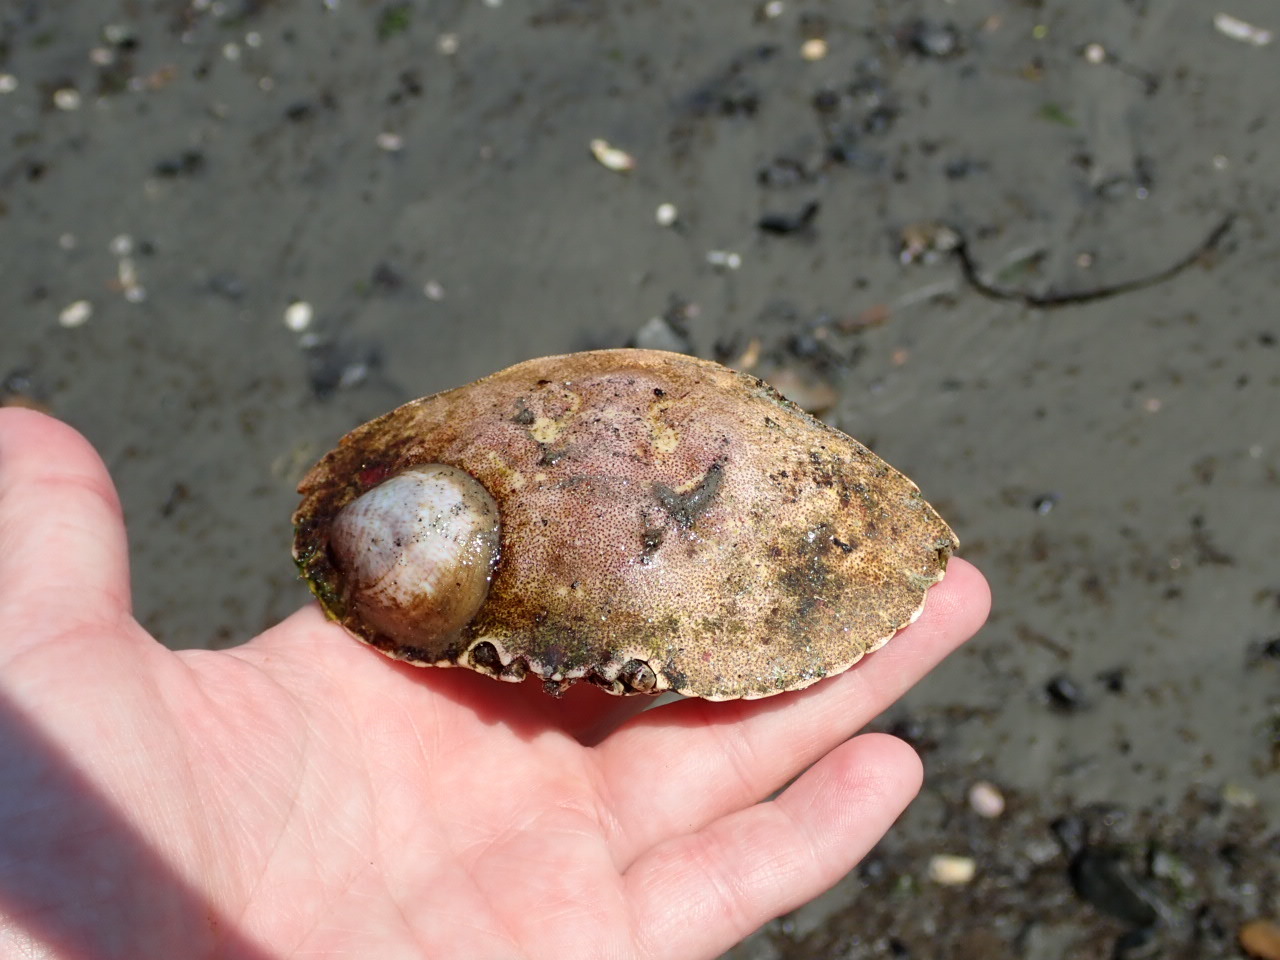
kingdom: Animalia
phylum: Arthropoda
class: Malacostraca
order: Decapoda
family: Cancridae
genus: Cancer
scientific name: Cancer irroratus
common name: Atlantic rock crab
